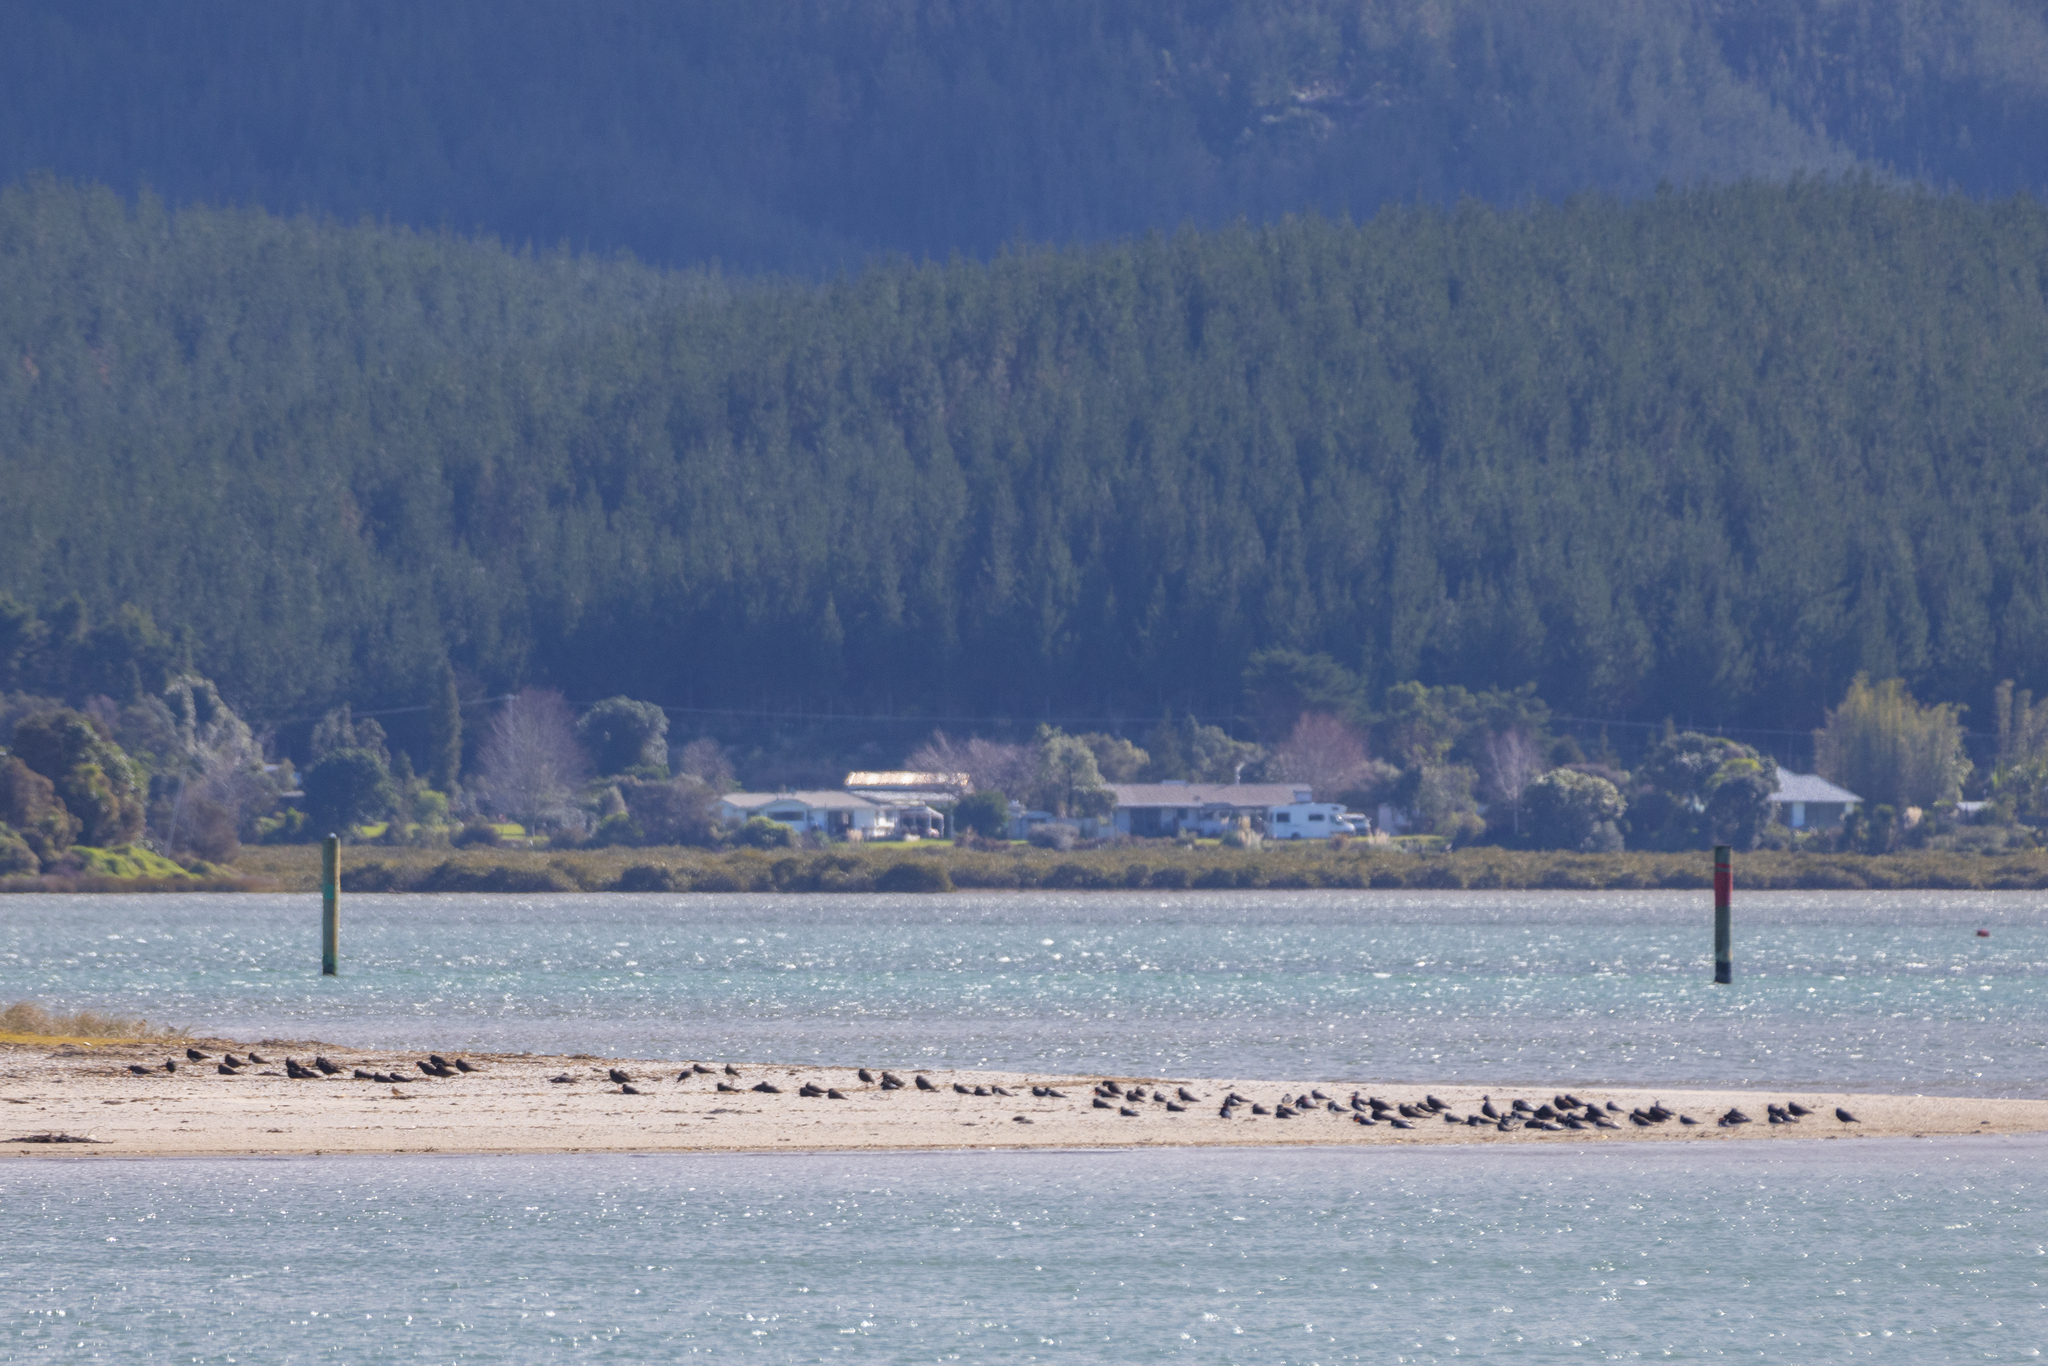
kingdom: Animalia
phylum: Chordata
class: Aves
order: Charadriiformes
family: Haematopodidae
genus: Haematopus
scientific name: Haematopus unicolor
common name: Variable oystercatcher
